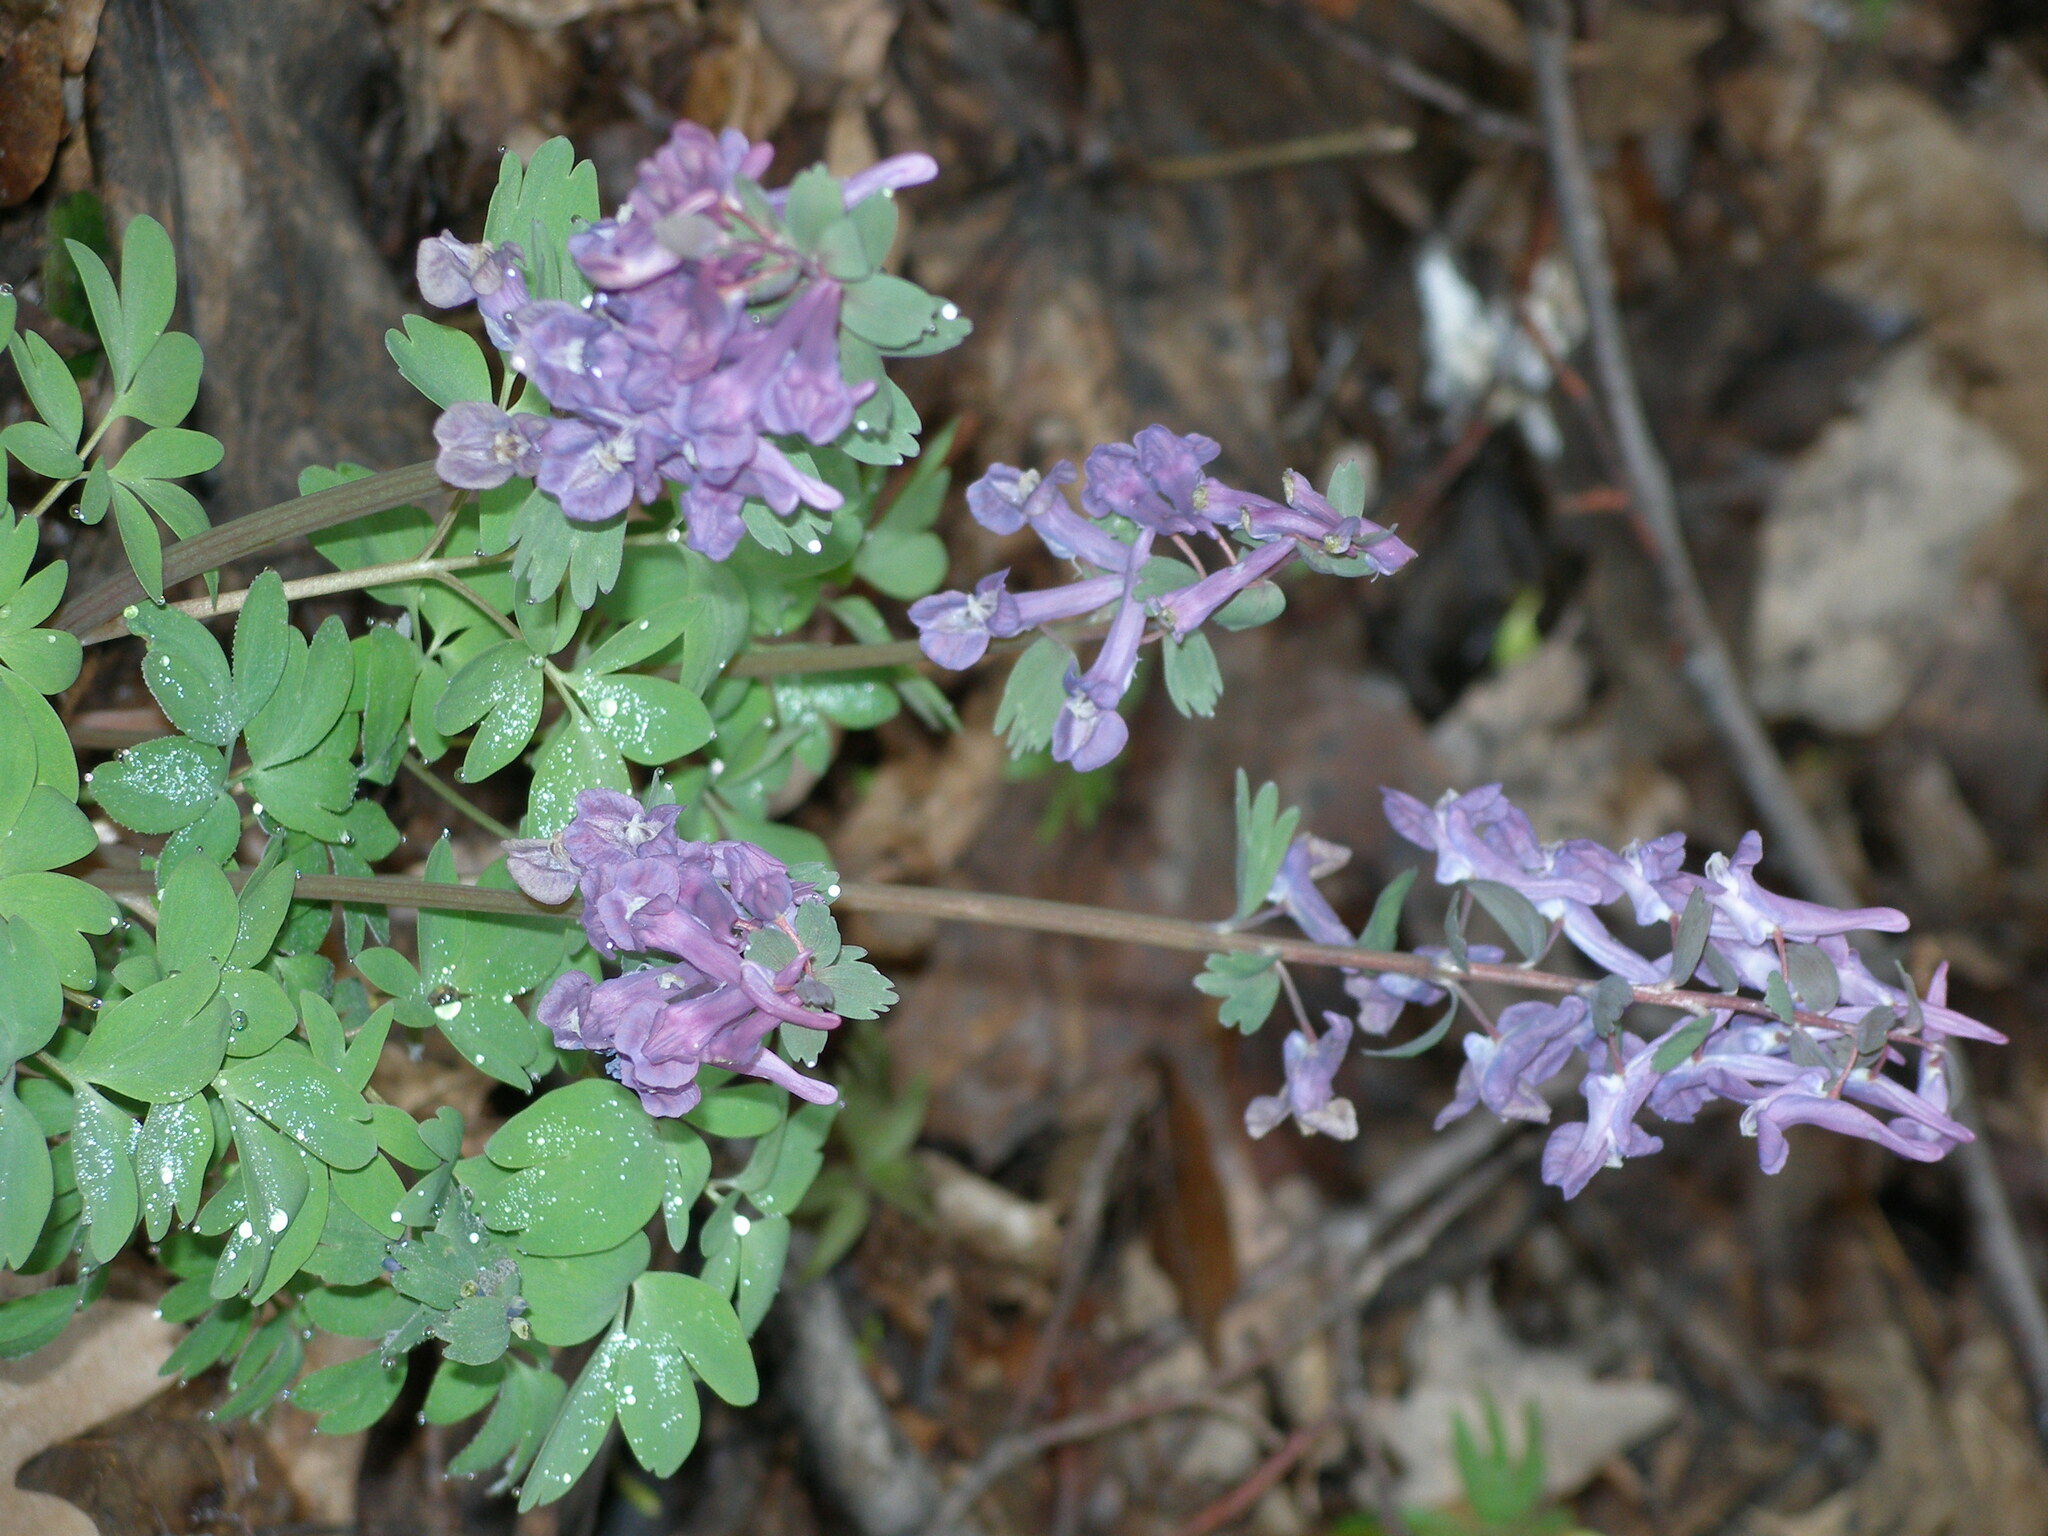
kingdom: Plantae
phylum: Tracheophyta
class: Magnoliopsida
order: Ranunculales
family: Papaveraceae
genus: Corydalis
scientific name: Corydalis solida
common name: Bird-in-a-bush
